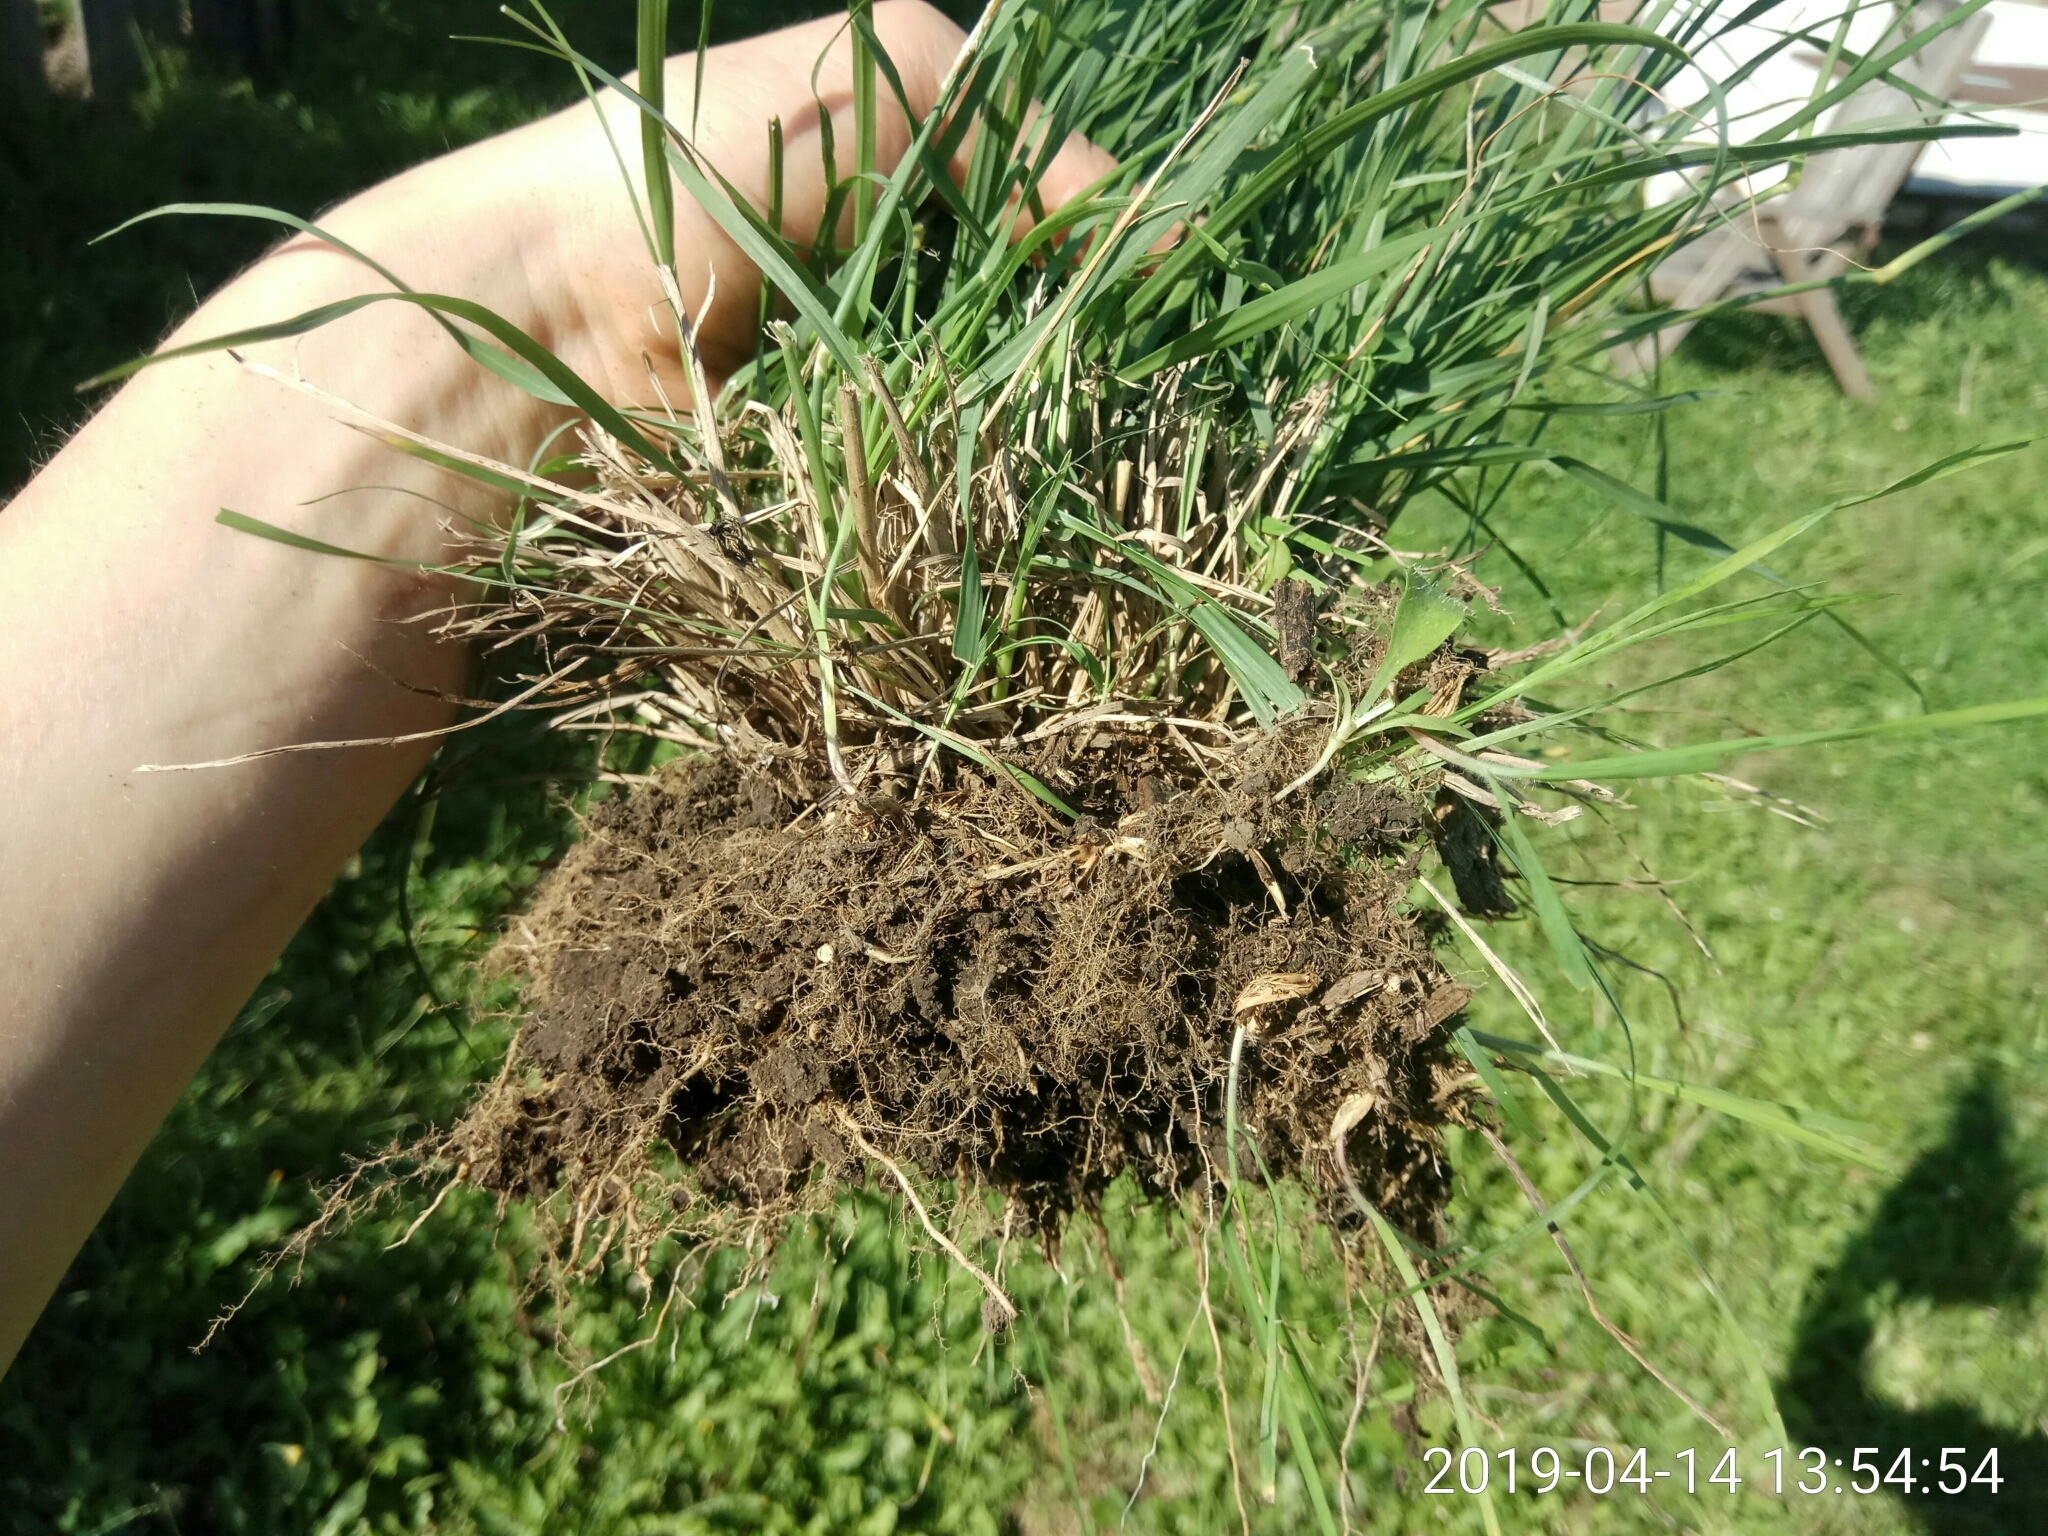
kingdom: Plantae
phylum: Tracheophyta
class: Liliopsida
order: Poales
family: Poaceae
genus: Sporobolus
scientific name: Sporobolus creber
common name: Slender dropseed
